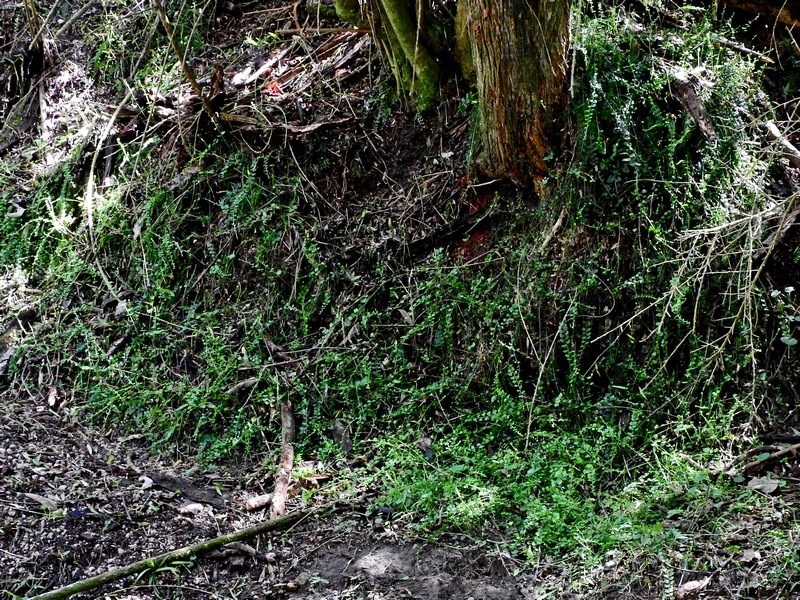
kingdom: Plantae
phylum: Tracheophyta
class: Polypodiopsida
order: Polypodiales
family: Aspleniaceae
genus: Asplenium
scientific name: Asplenium flabellifolium
